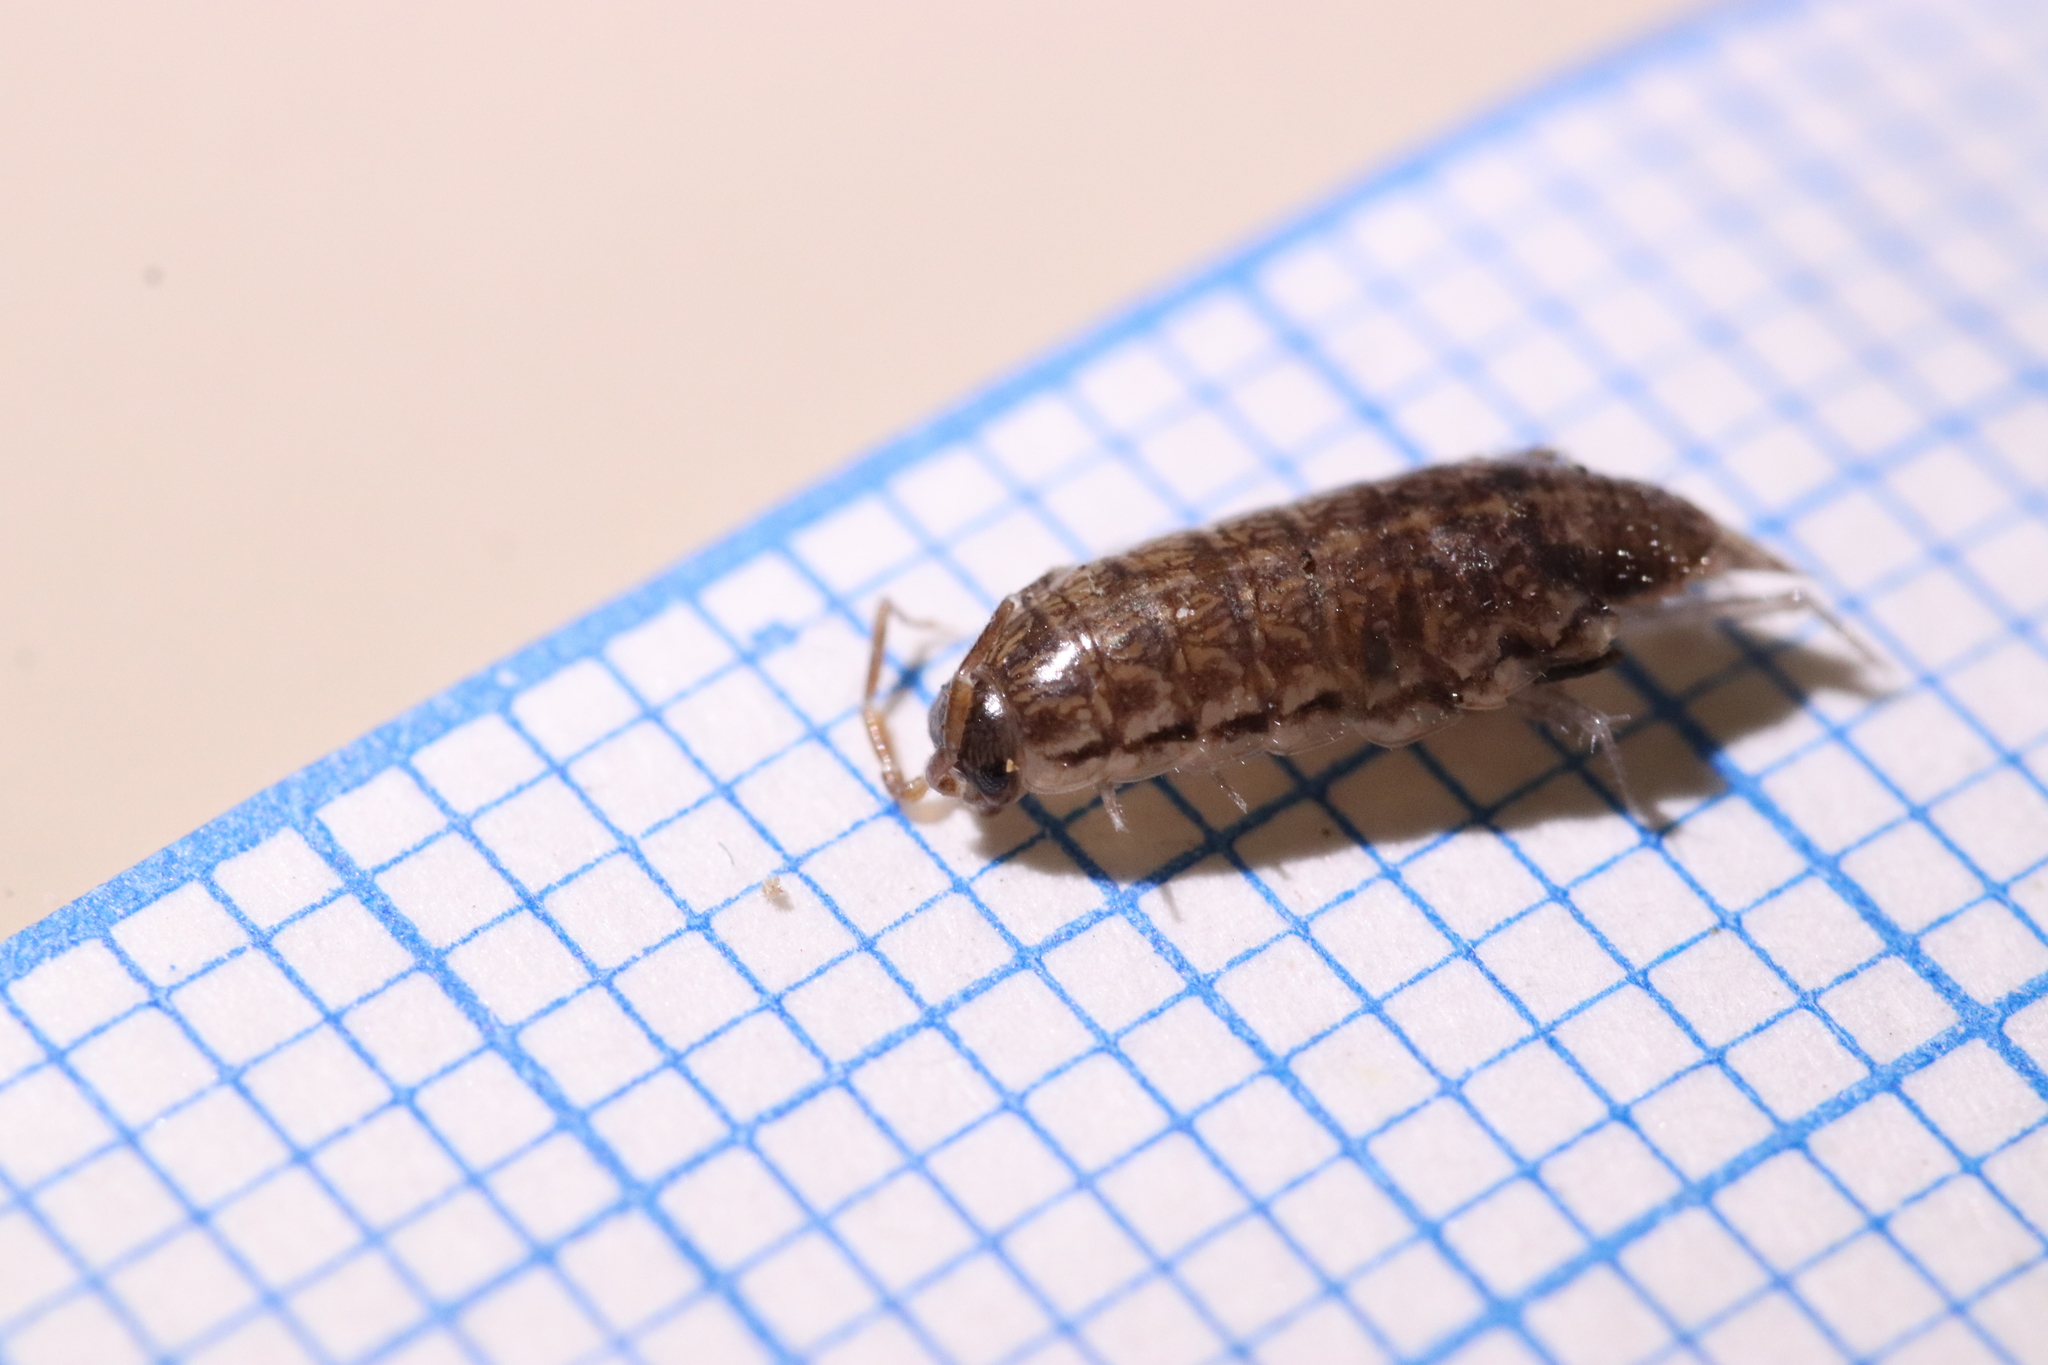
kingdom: Animalia
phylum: Arthropoda
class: Malacostraca
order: Isopoda
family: Philosciidae
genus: Chaetophiloscia
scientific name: Chaetophiloscia elongata
